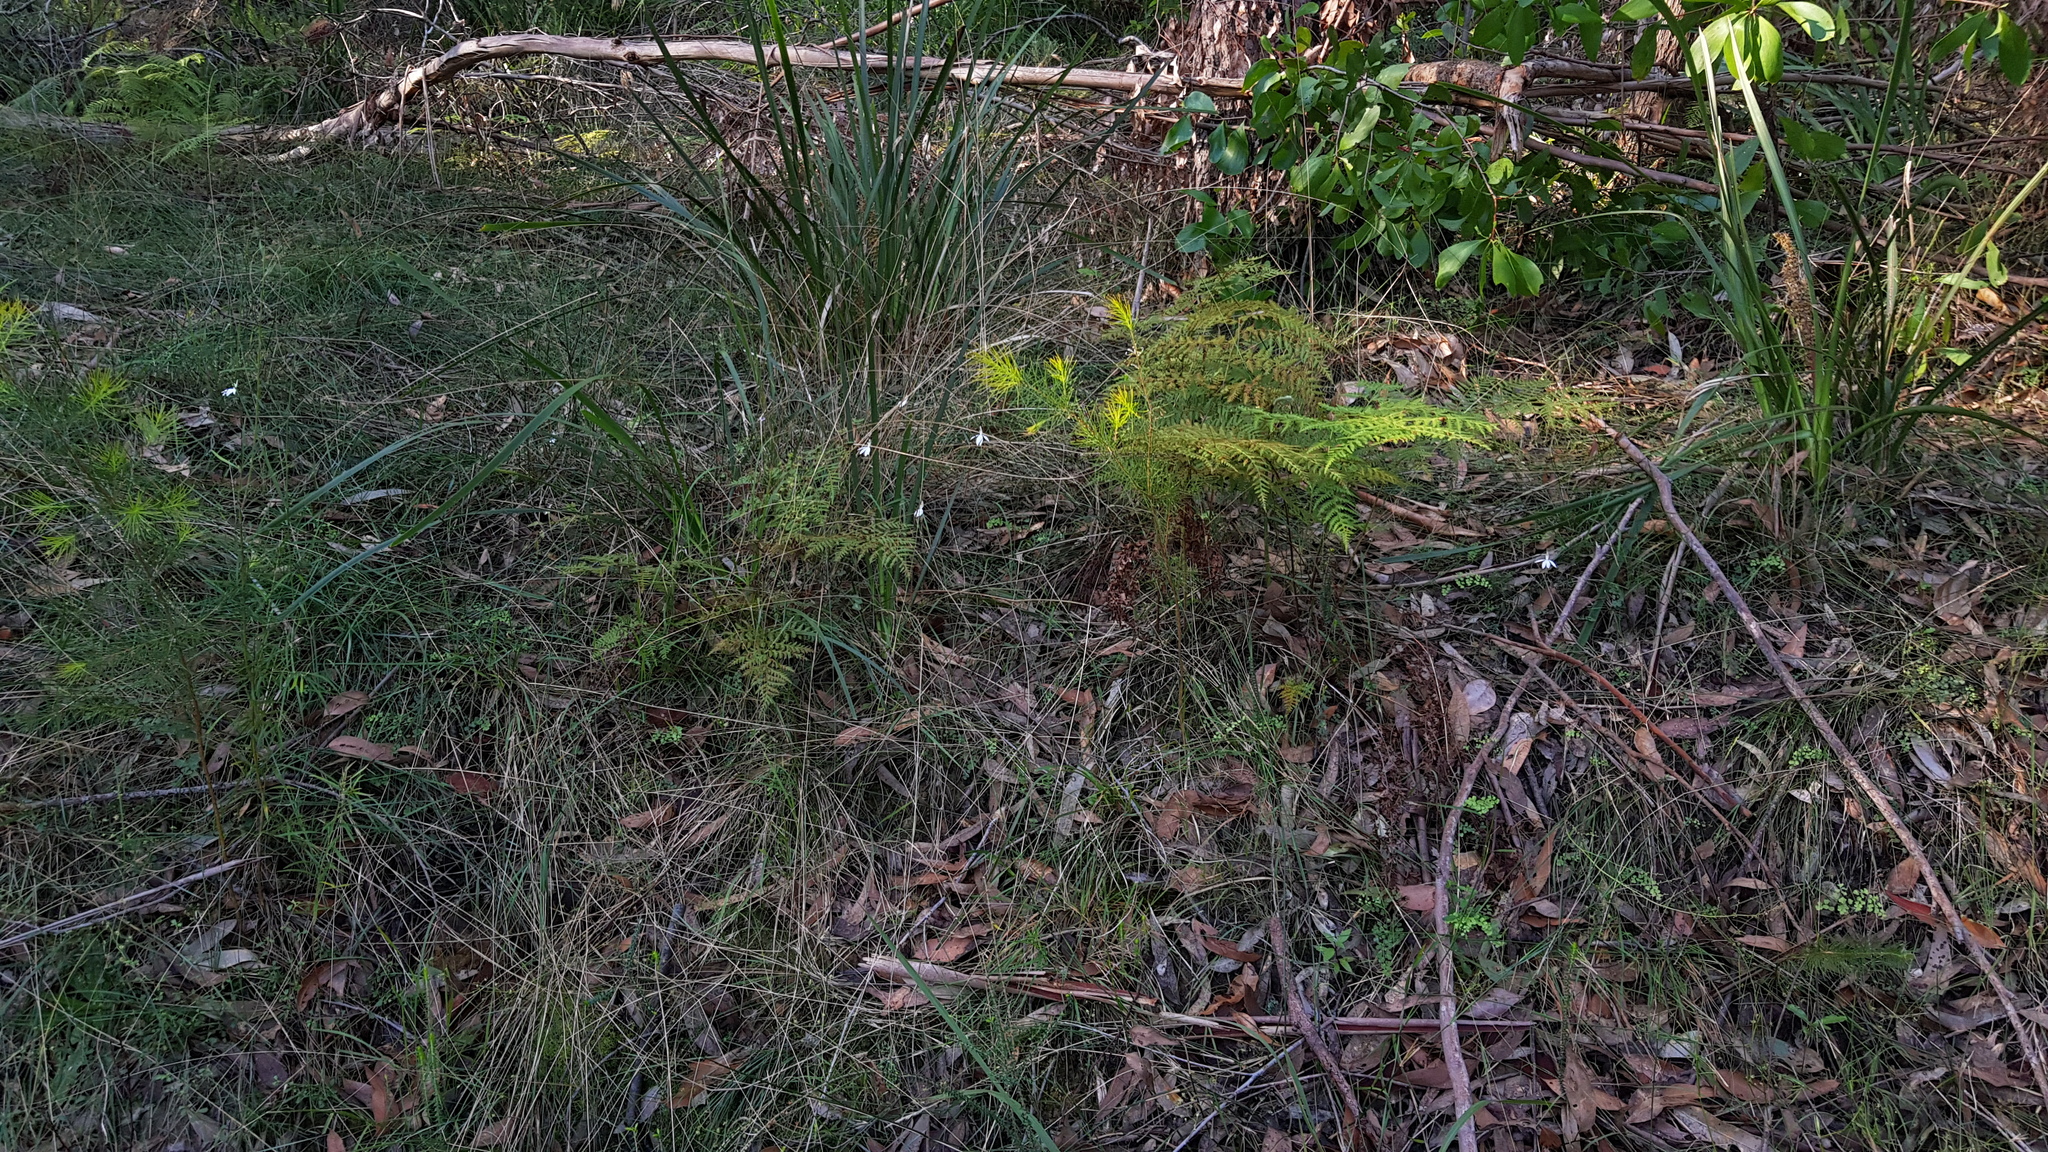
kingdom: Plantae
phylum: Tracheophyta
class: Liliopsida
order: Asparagales
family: Orchidaceae
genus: Caladenia
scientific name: Caladenia catenata
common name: White caladenia
